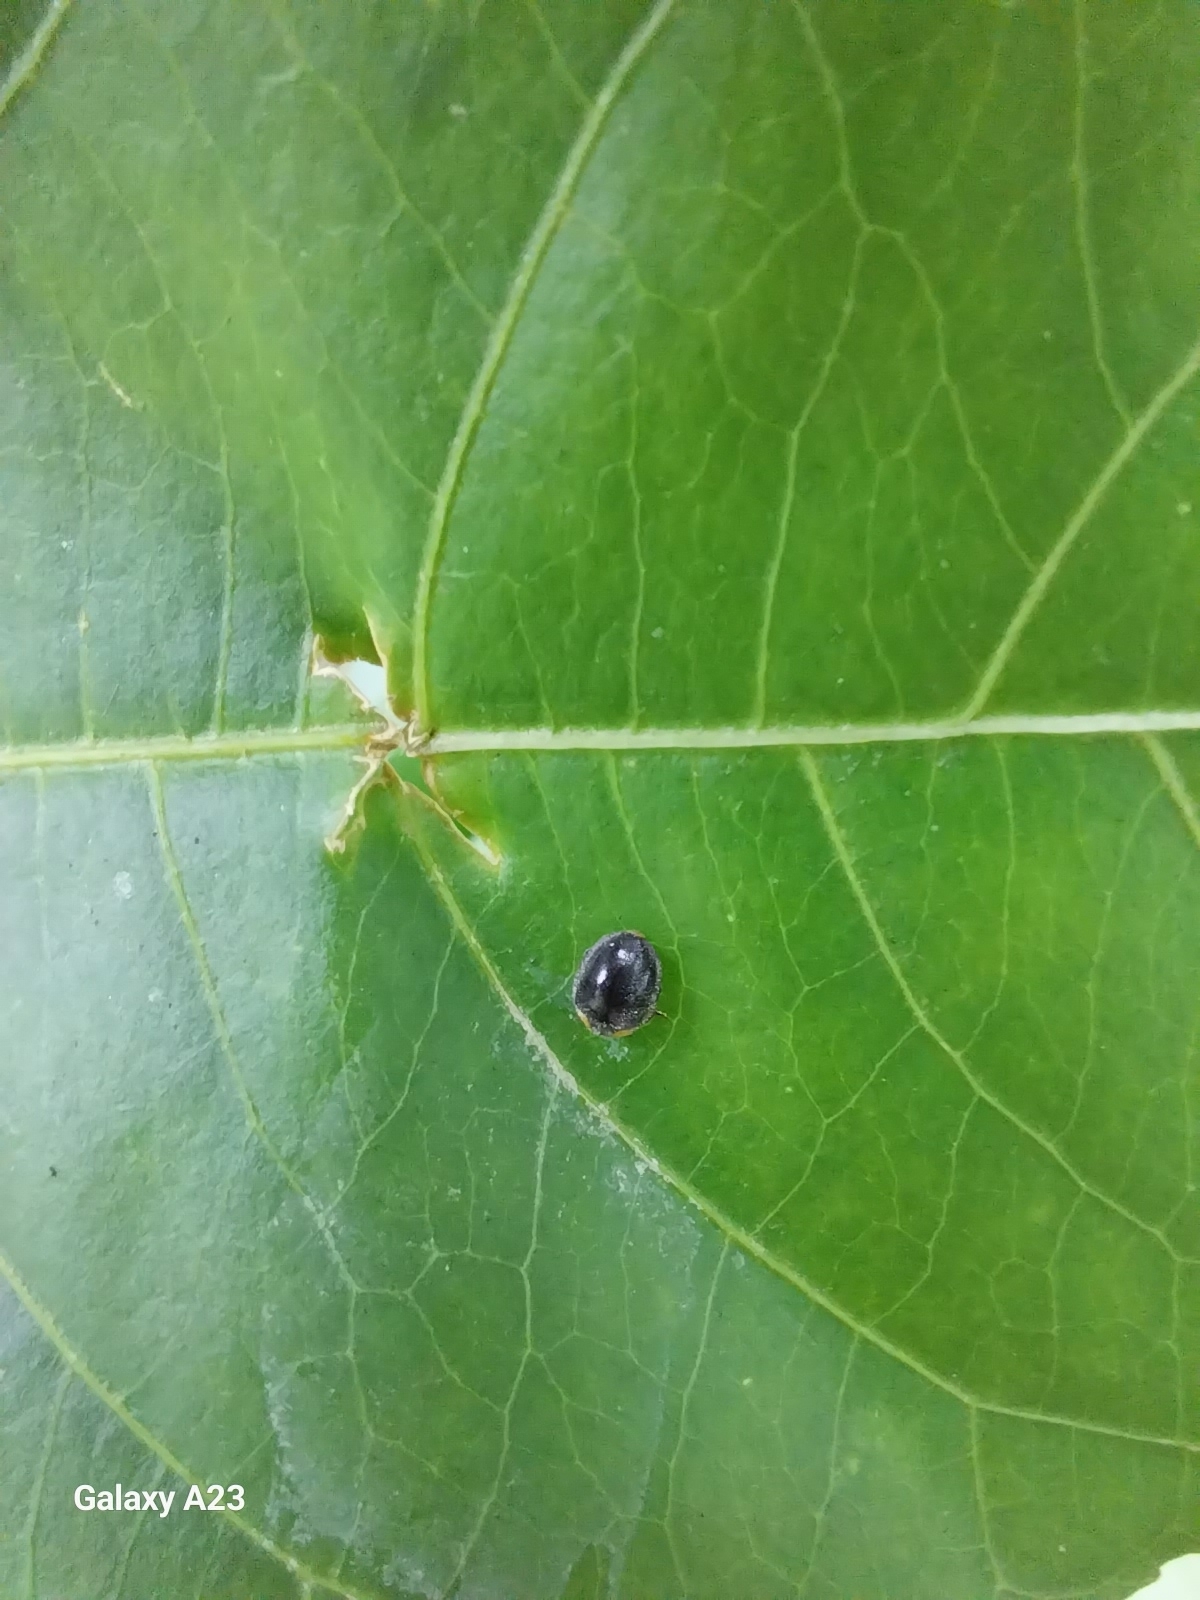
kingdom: Animalia
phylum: Arthropoda
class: Insecta
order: Coleoptera
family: Coccinellidae
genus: Scymnodes
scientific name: Scymnodes lividigaster
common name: Yellowshouldered lady beetle
